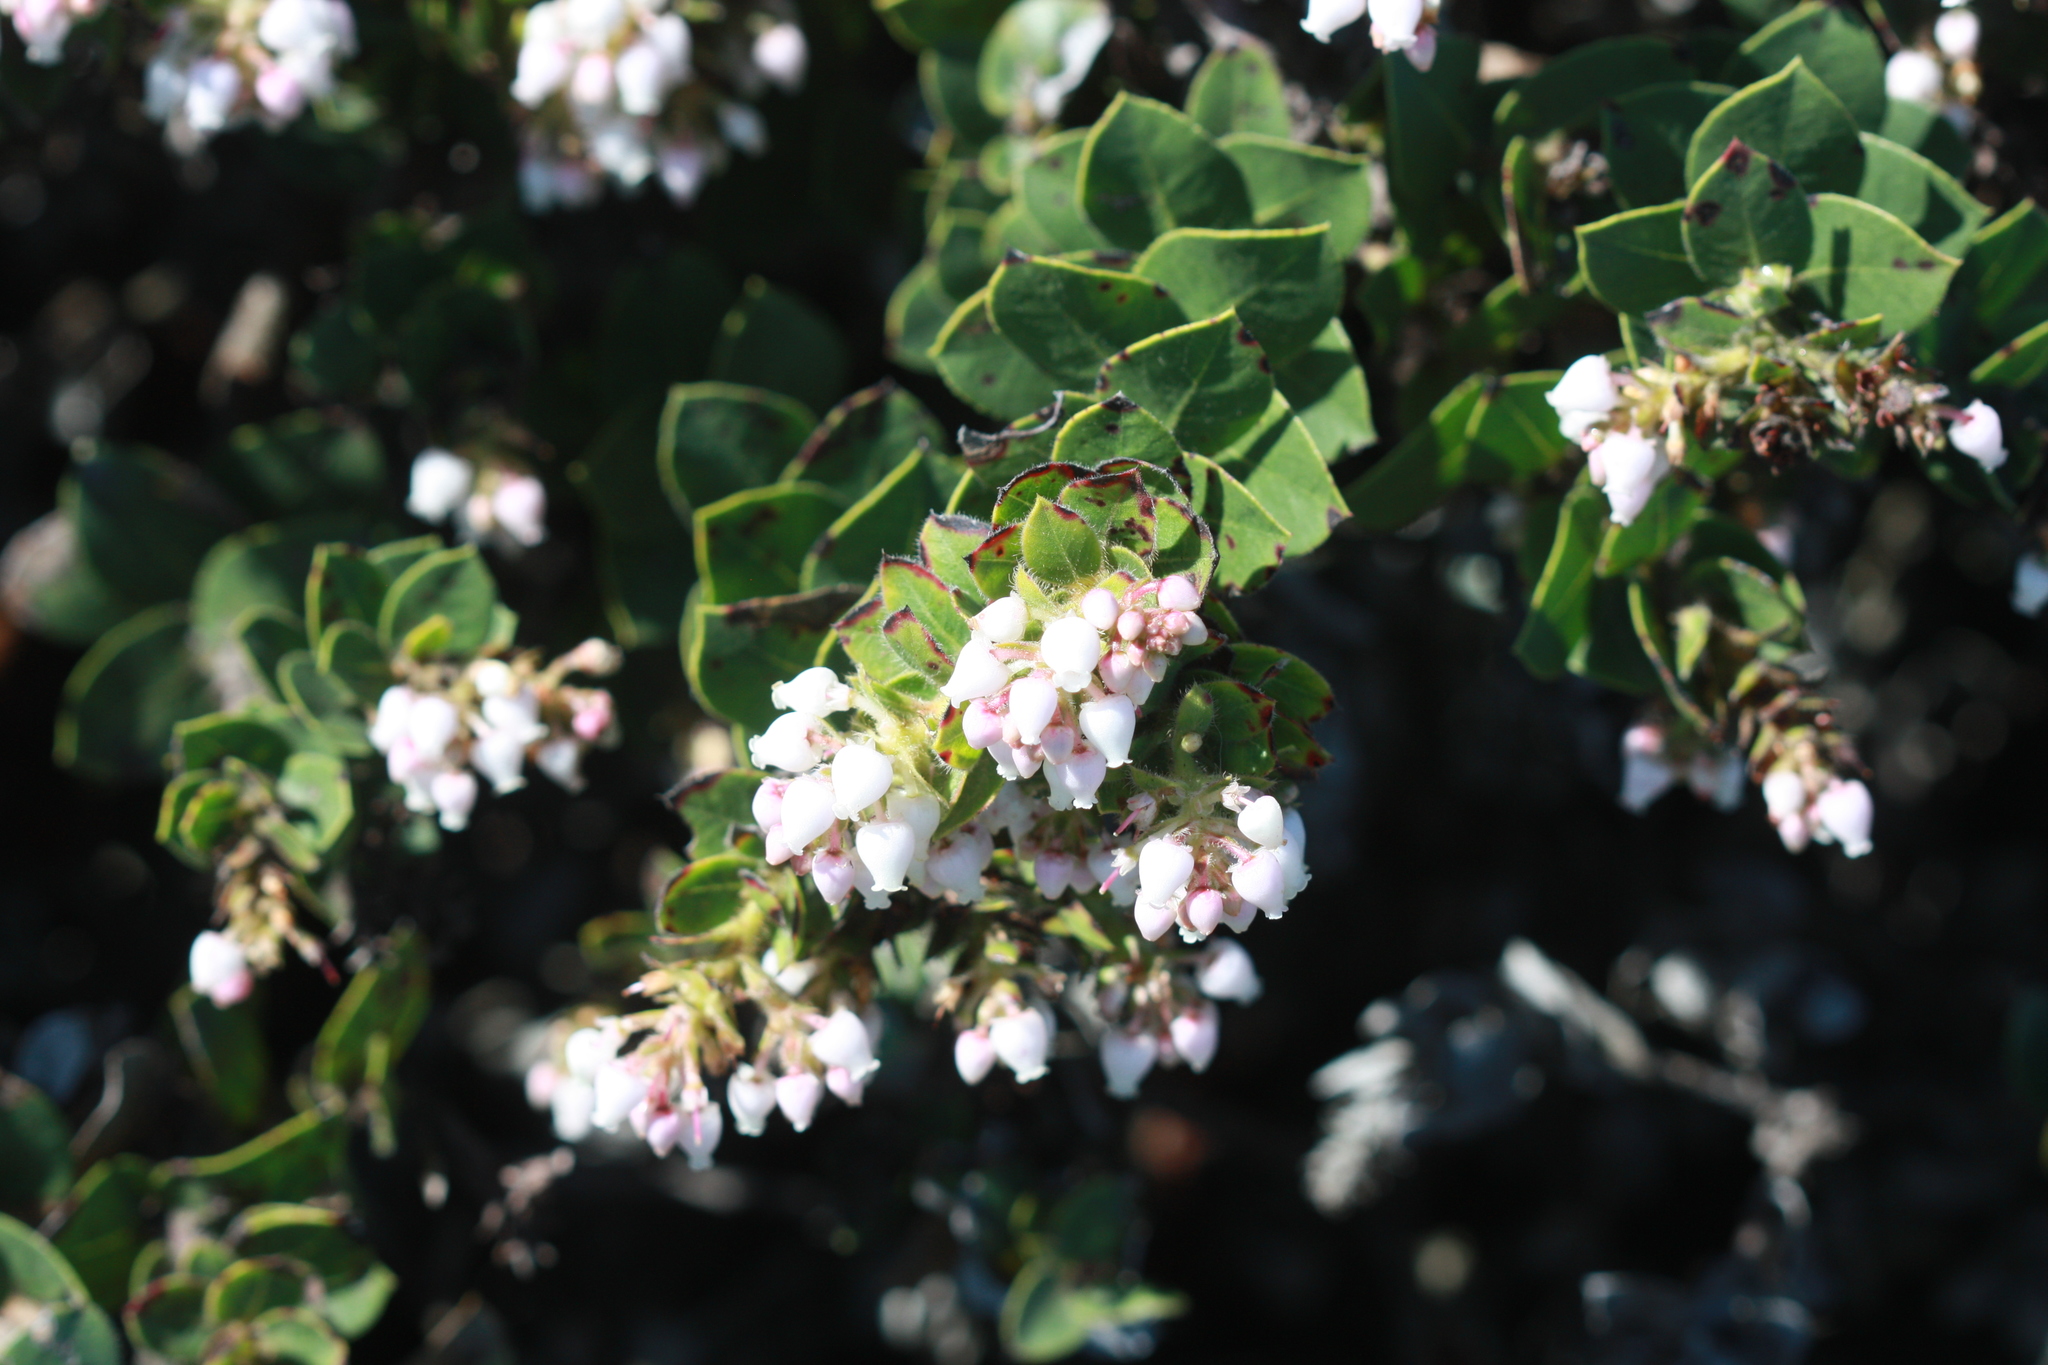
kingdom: Plantae
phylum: Tracheophyta
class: Magnoliopsida
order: Ericales
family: Ericaceae
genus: Arctostaphylos
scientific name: Arctostaphylos imbricata
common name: San bruno mountain manzanita
